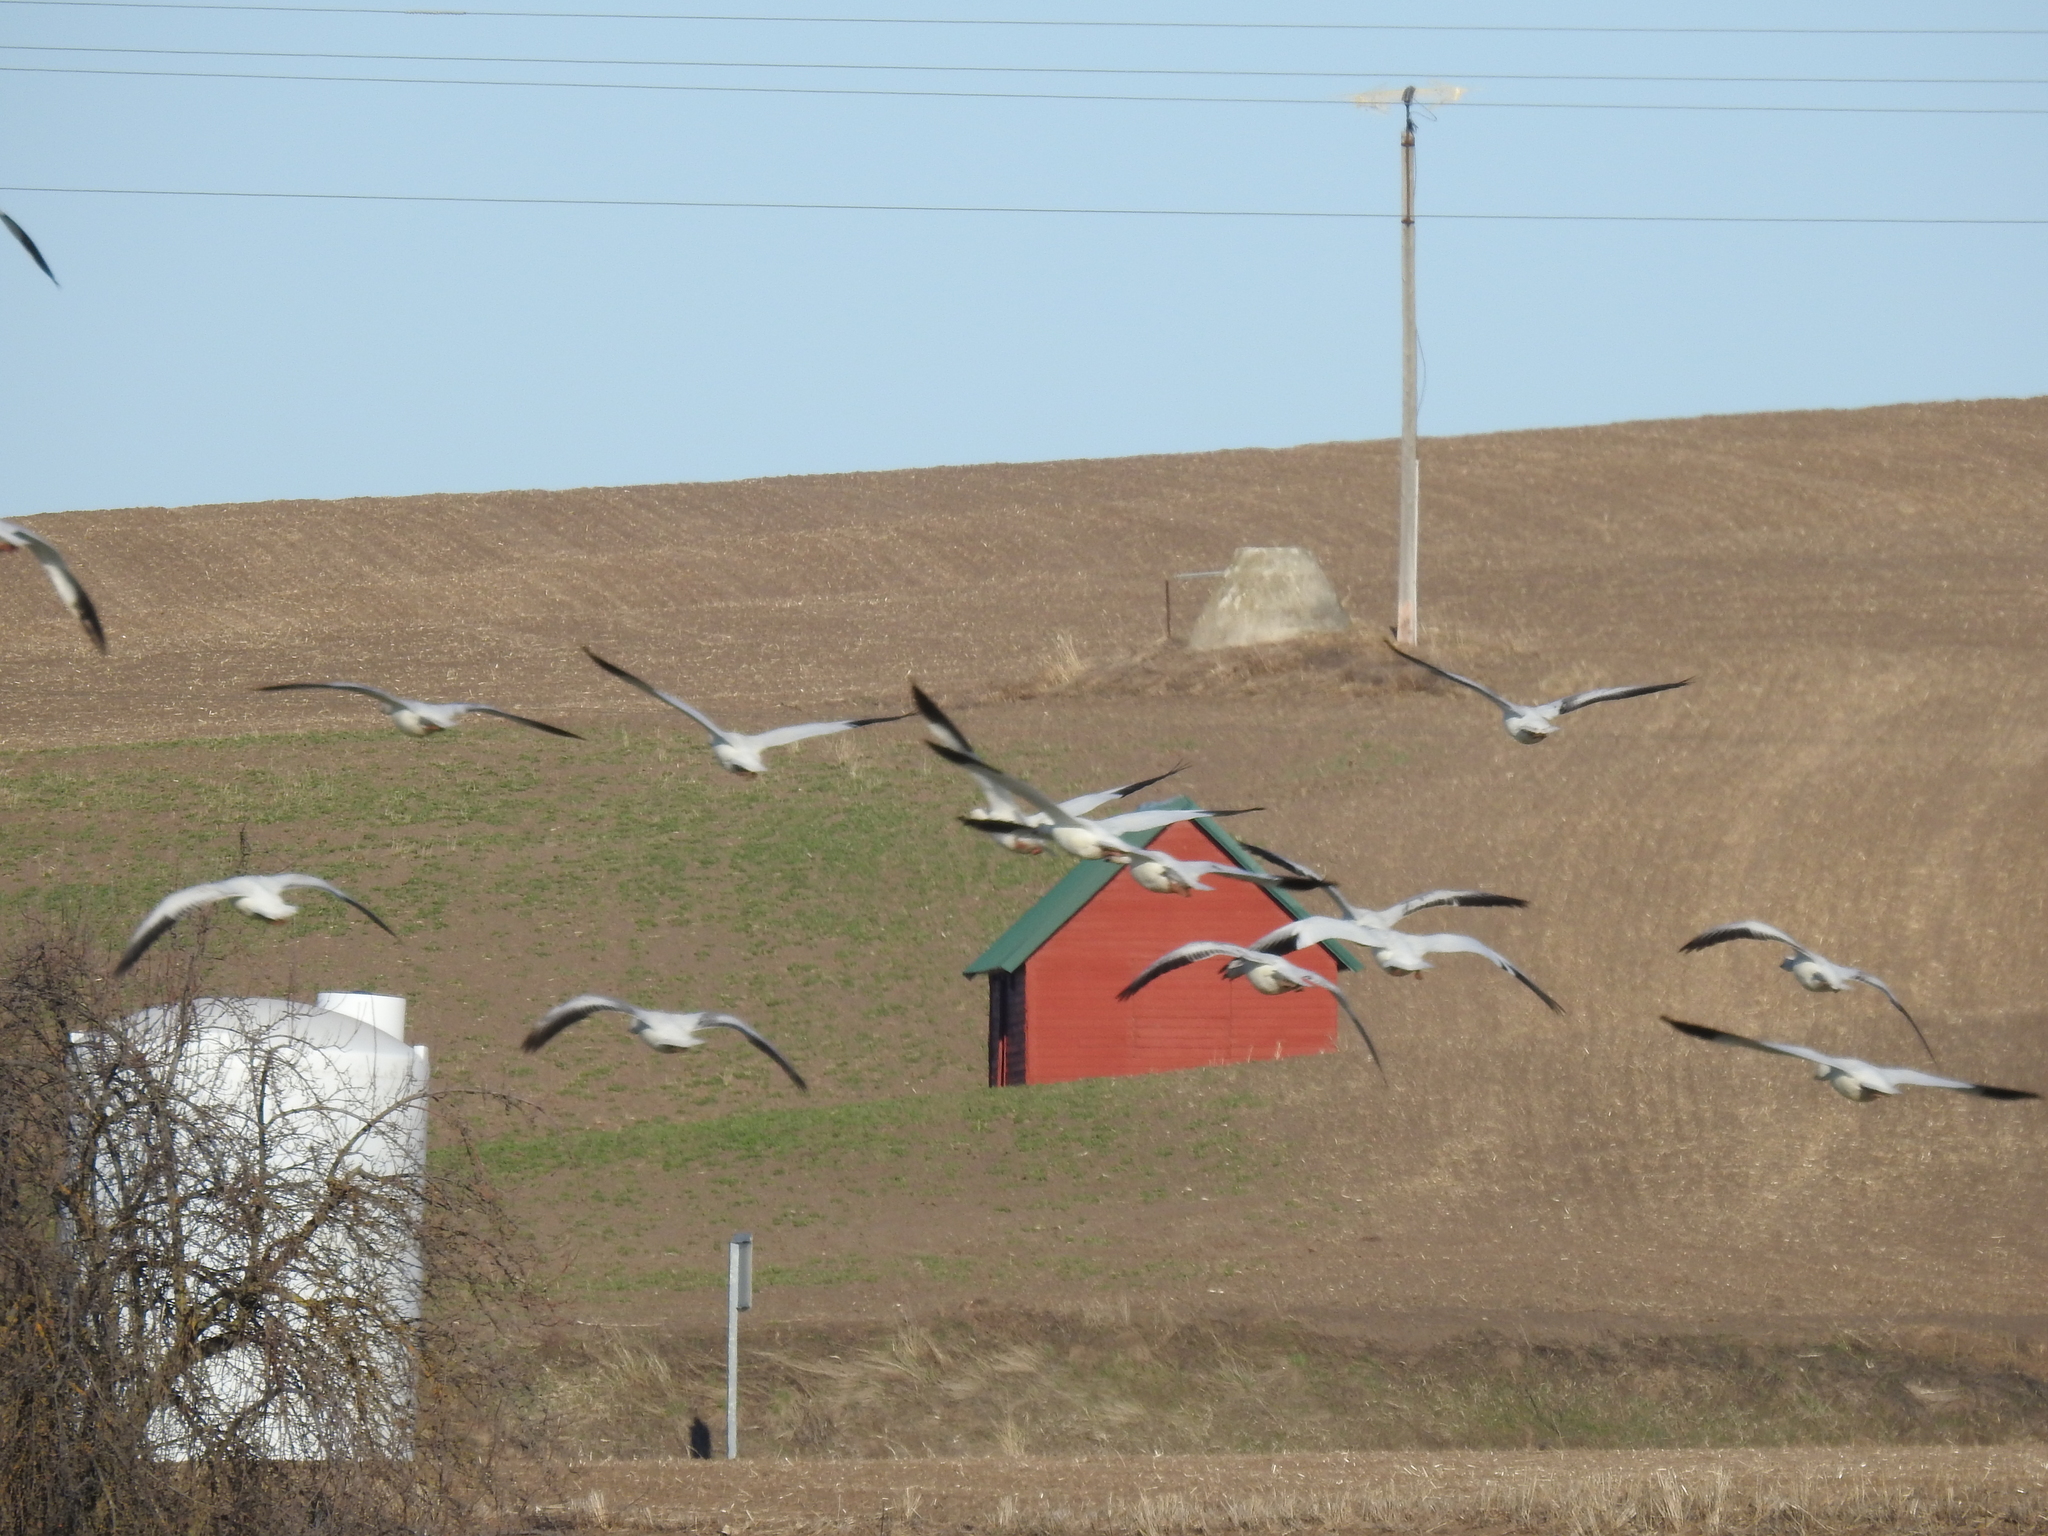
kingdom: Animalia
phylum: Chordata
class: Aves
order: Anseriformes
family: Anatidae
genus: Anser
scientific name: Anser caerulescens
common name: Snow goose
